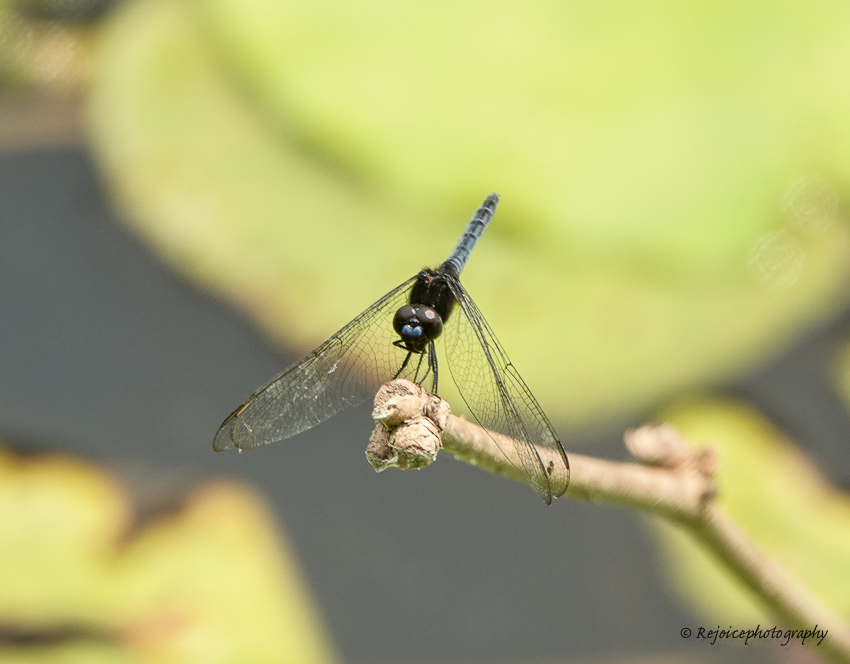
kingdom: Animalia
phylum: Arthropoda
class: Insecta
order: Odonata
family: Libellulidae
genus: Indothemis
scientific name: Indothemis limbata
